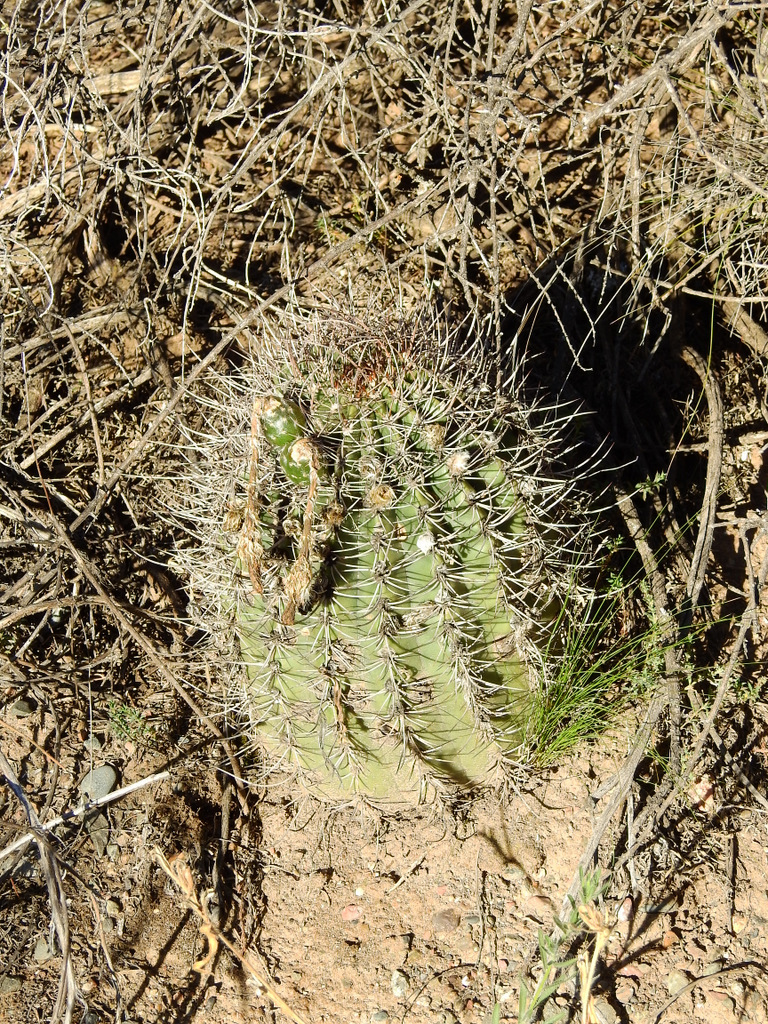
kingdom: Plantae
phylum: Tracheophyta
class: Magnoliopsida
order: Caryophyllales
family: Cactaceae
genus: Acanthocalycium
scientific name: Acanthocalycium leucanthum
